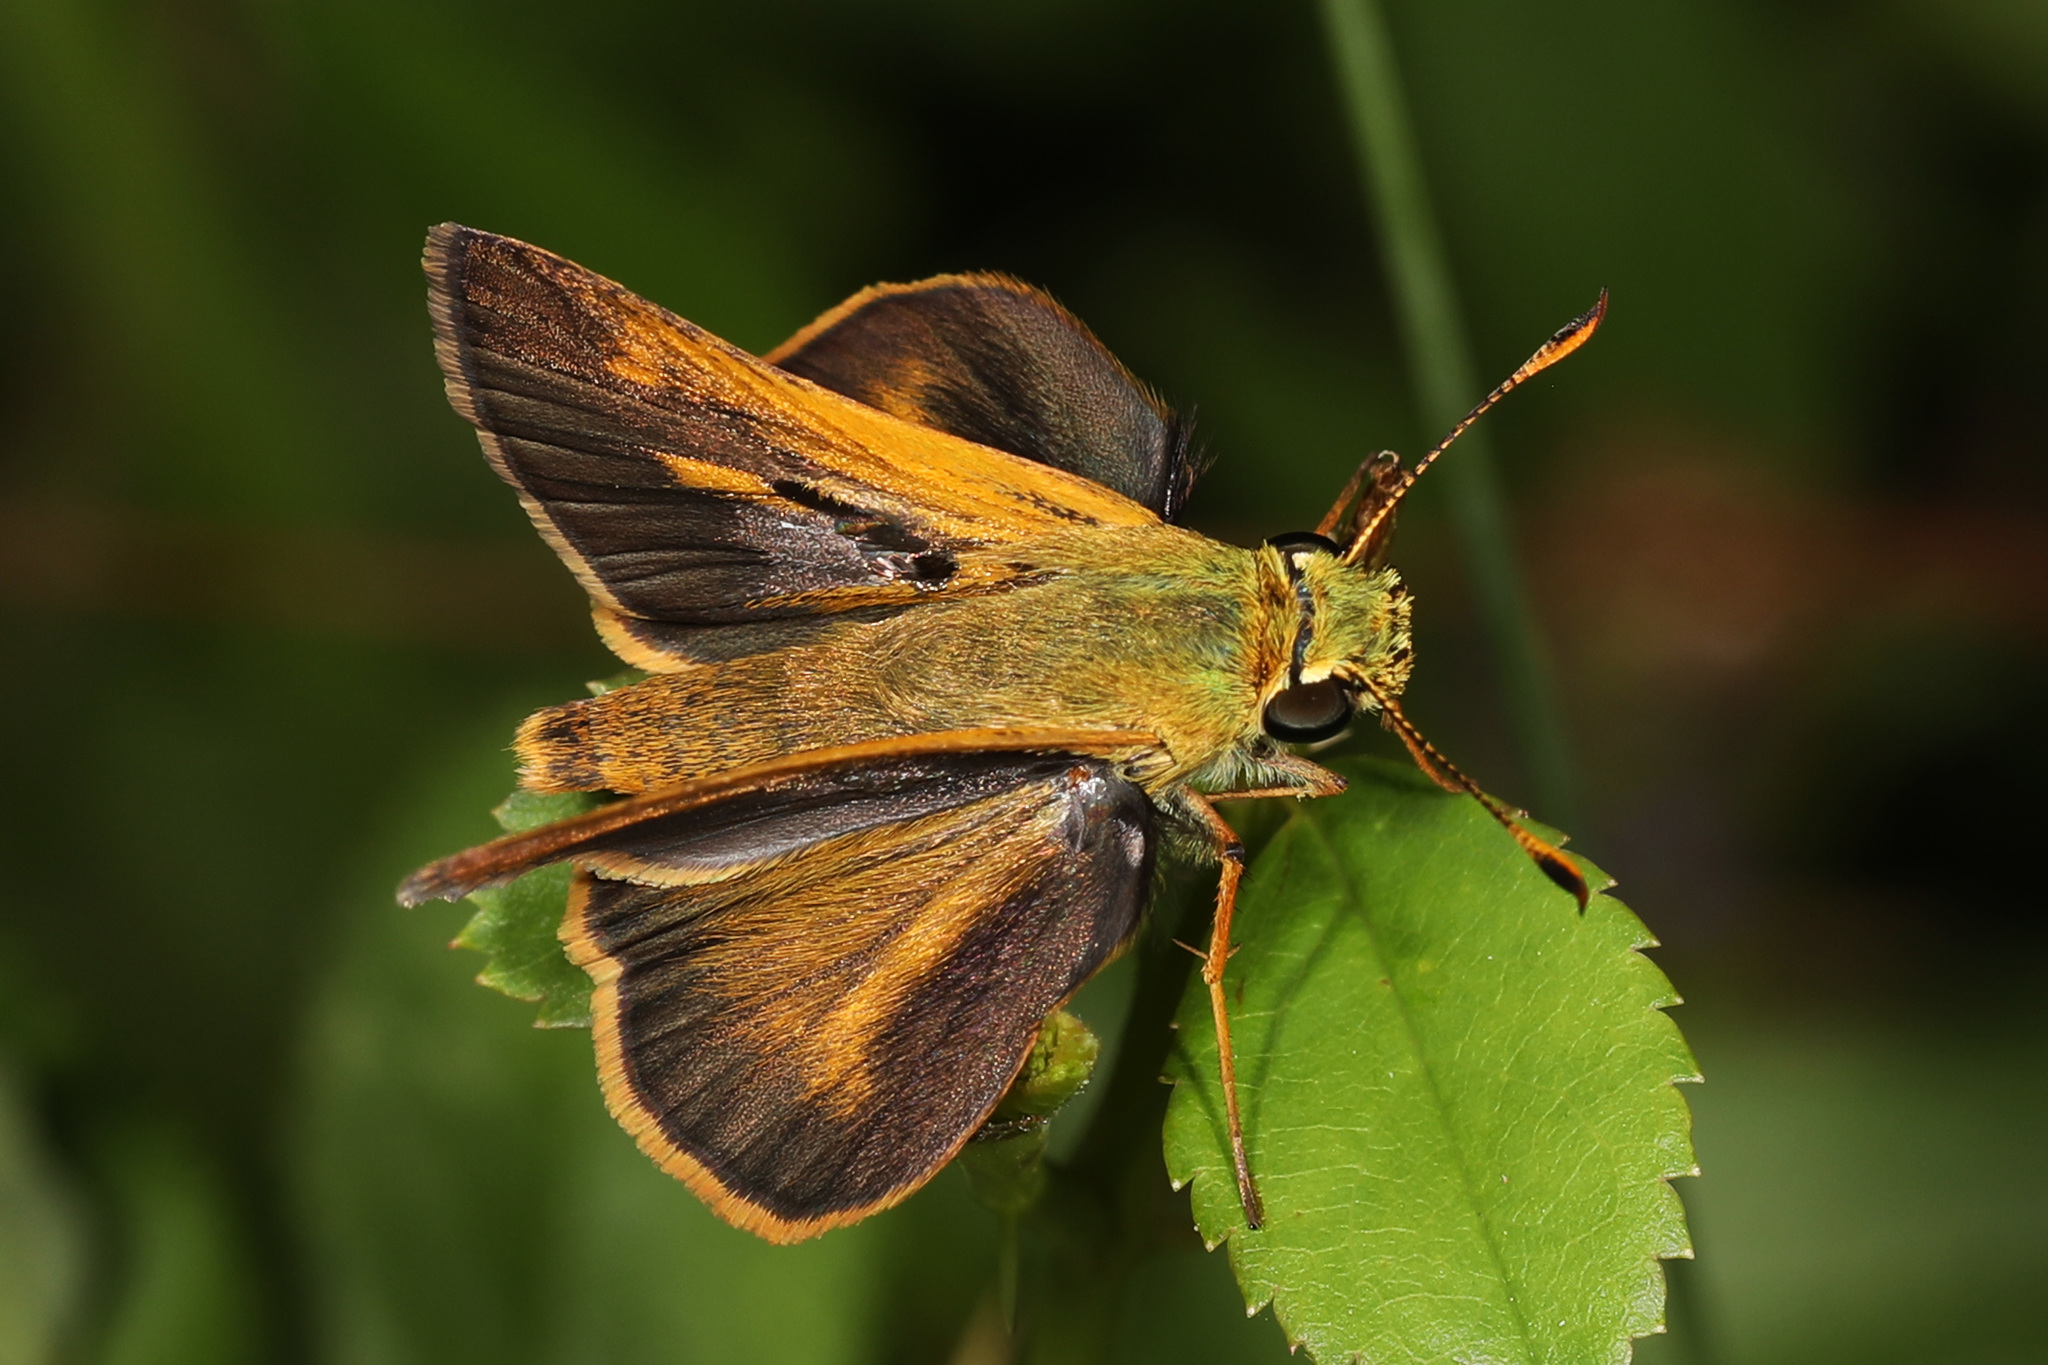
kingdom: Animalia
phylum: Arthropoda
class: Insecta
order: Lepidoptera
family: Hesperiidae
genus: Polites
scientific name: Polites themistocles
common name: Tawny-edged skipper
